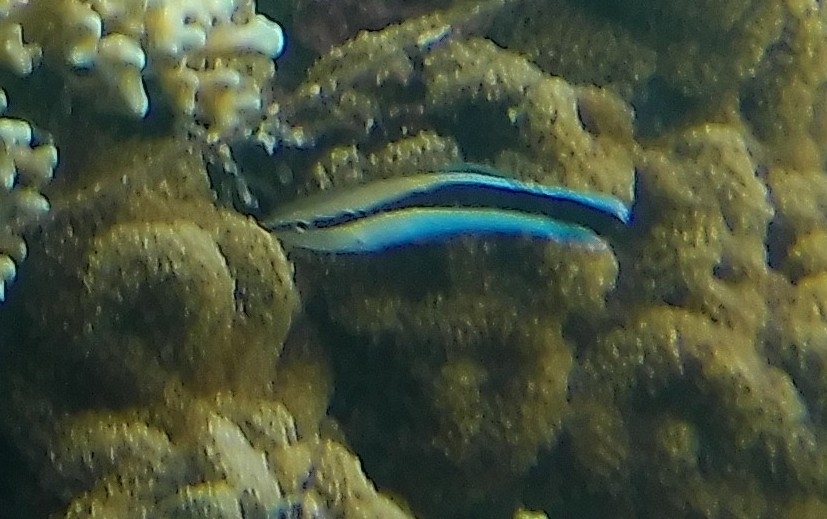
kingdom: Animalia
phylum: Chordata
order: Perciformes
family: Labridae
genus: Labroides
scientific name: Labroides dimidiatus
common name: Blue diesel wrasse
